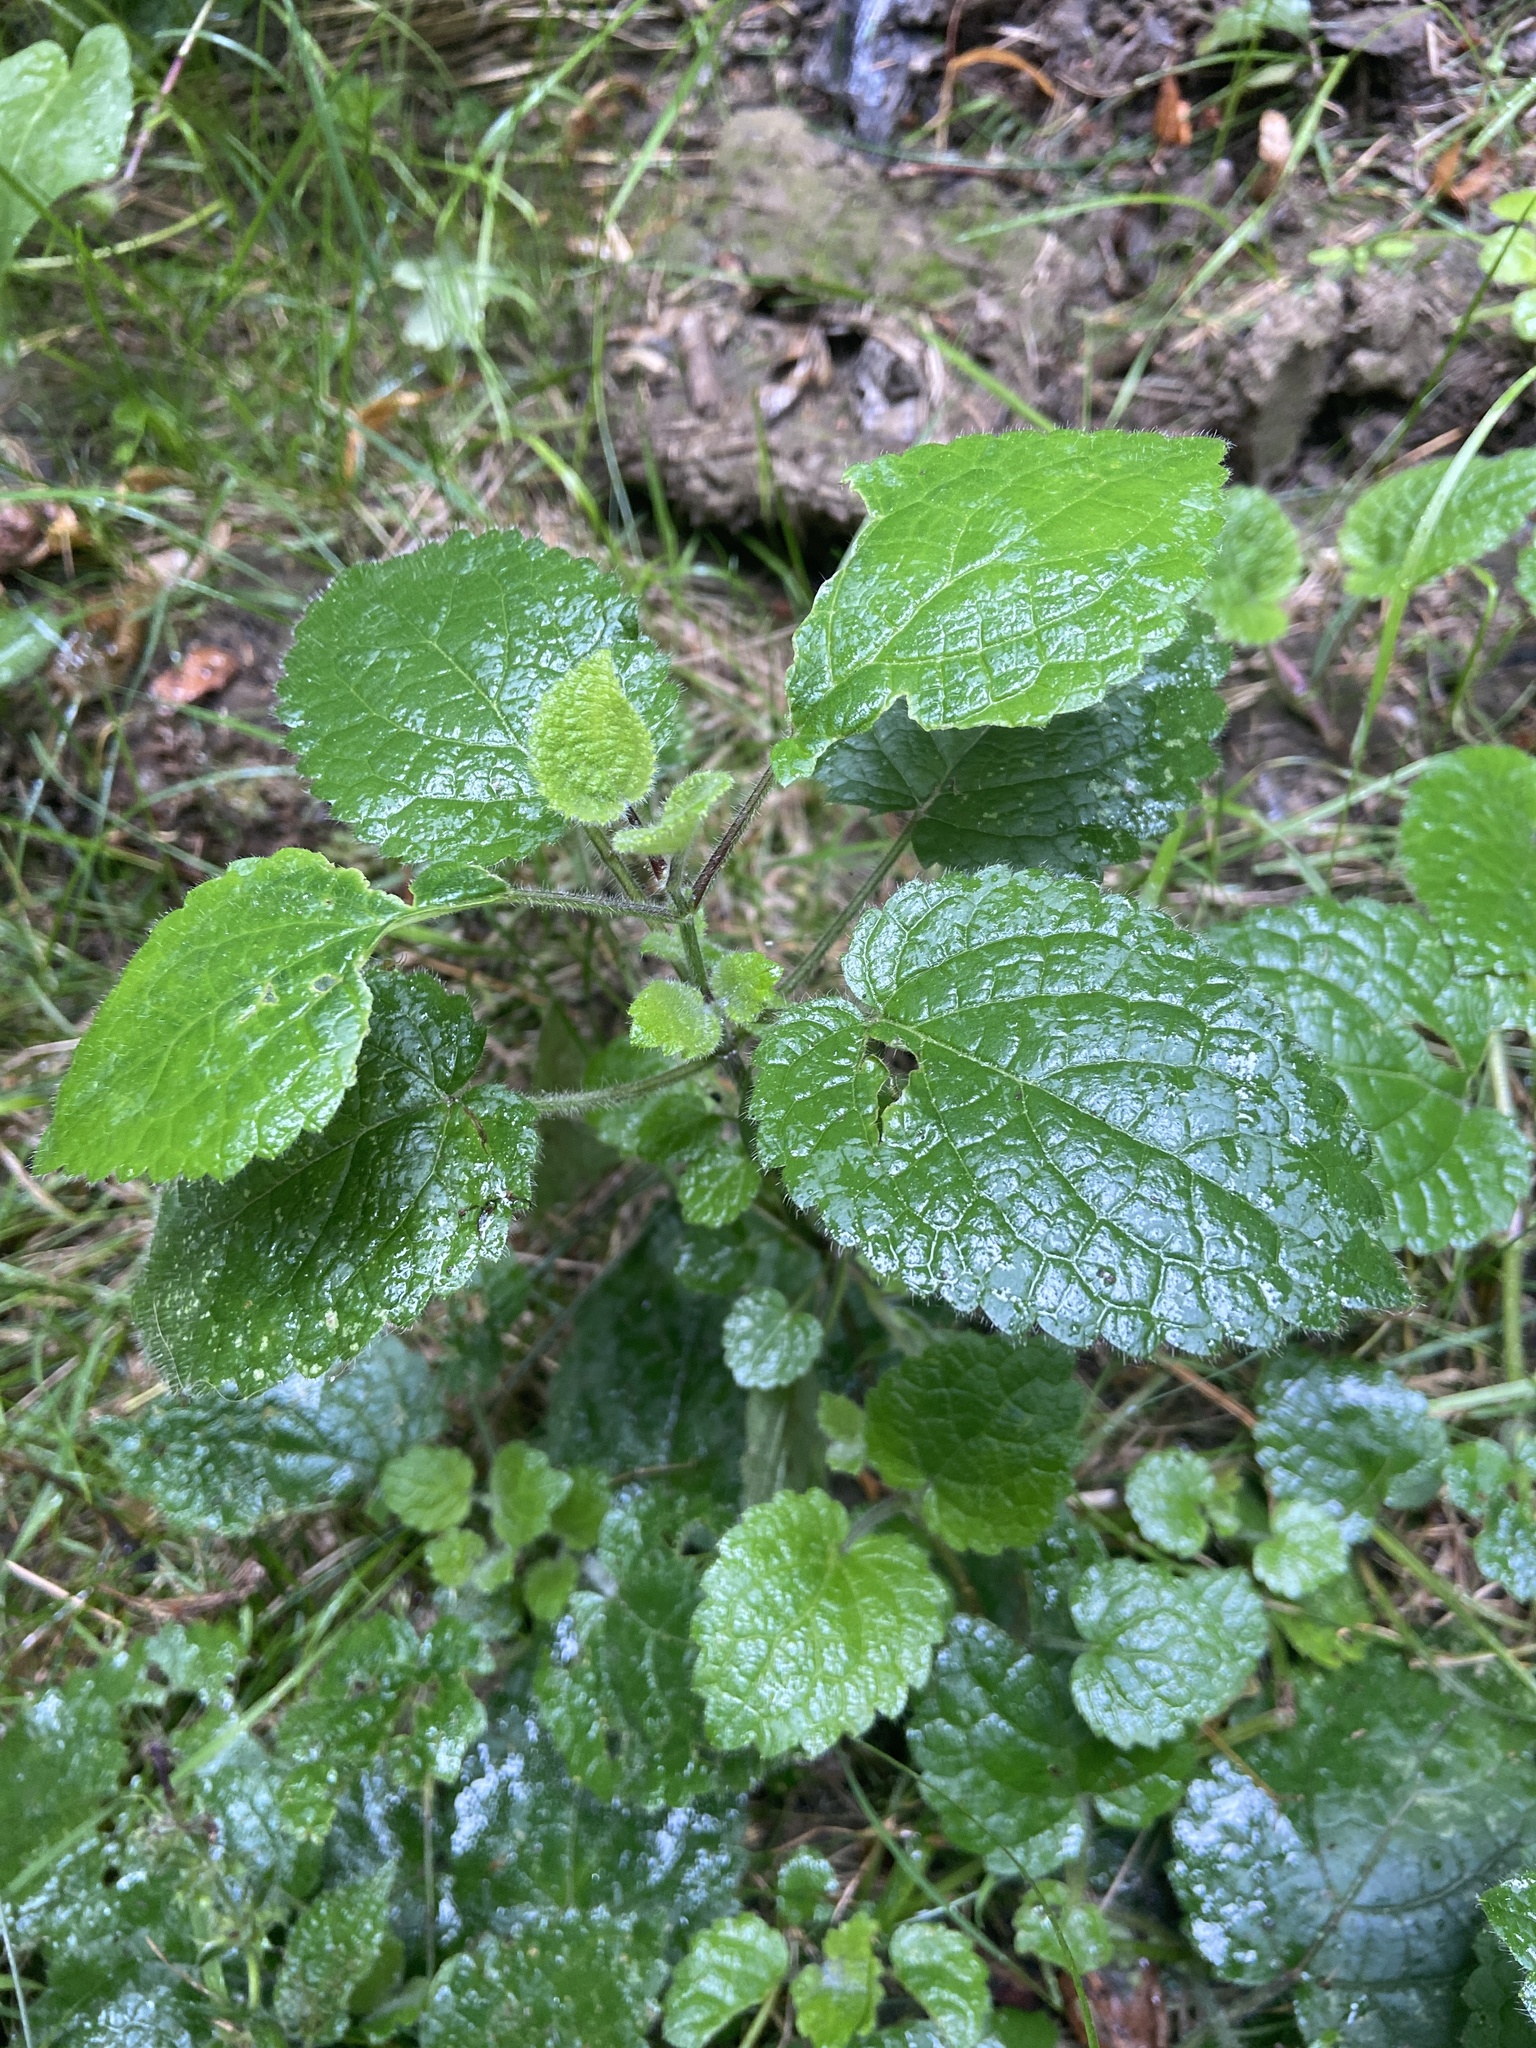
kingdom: Plantae
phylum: Tracheophyta
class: Magnoliopsida
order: Lamiales
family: Lamiaceae
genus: Stachys
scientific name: Stachys sylvatica
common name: Hedge woundwort
